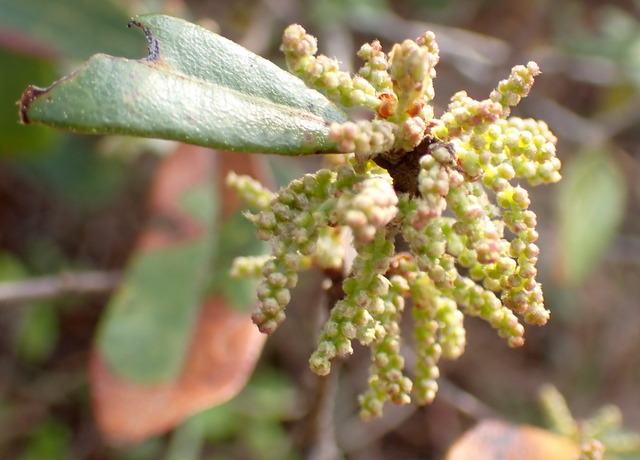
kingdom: Plantae
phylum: Tracheophyta
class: Magnoliopsida
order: Fagales
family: Fagaceae
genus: Quercus
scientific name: Quercus virginiana
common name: Southern live oak
